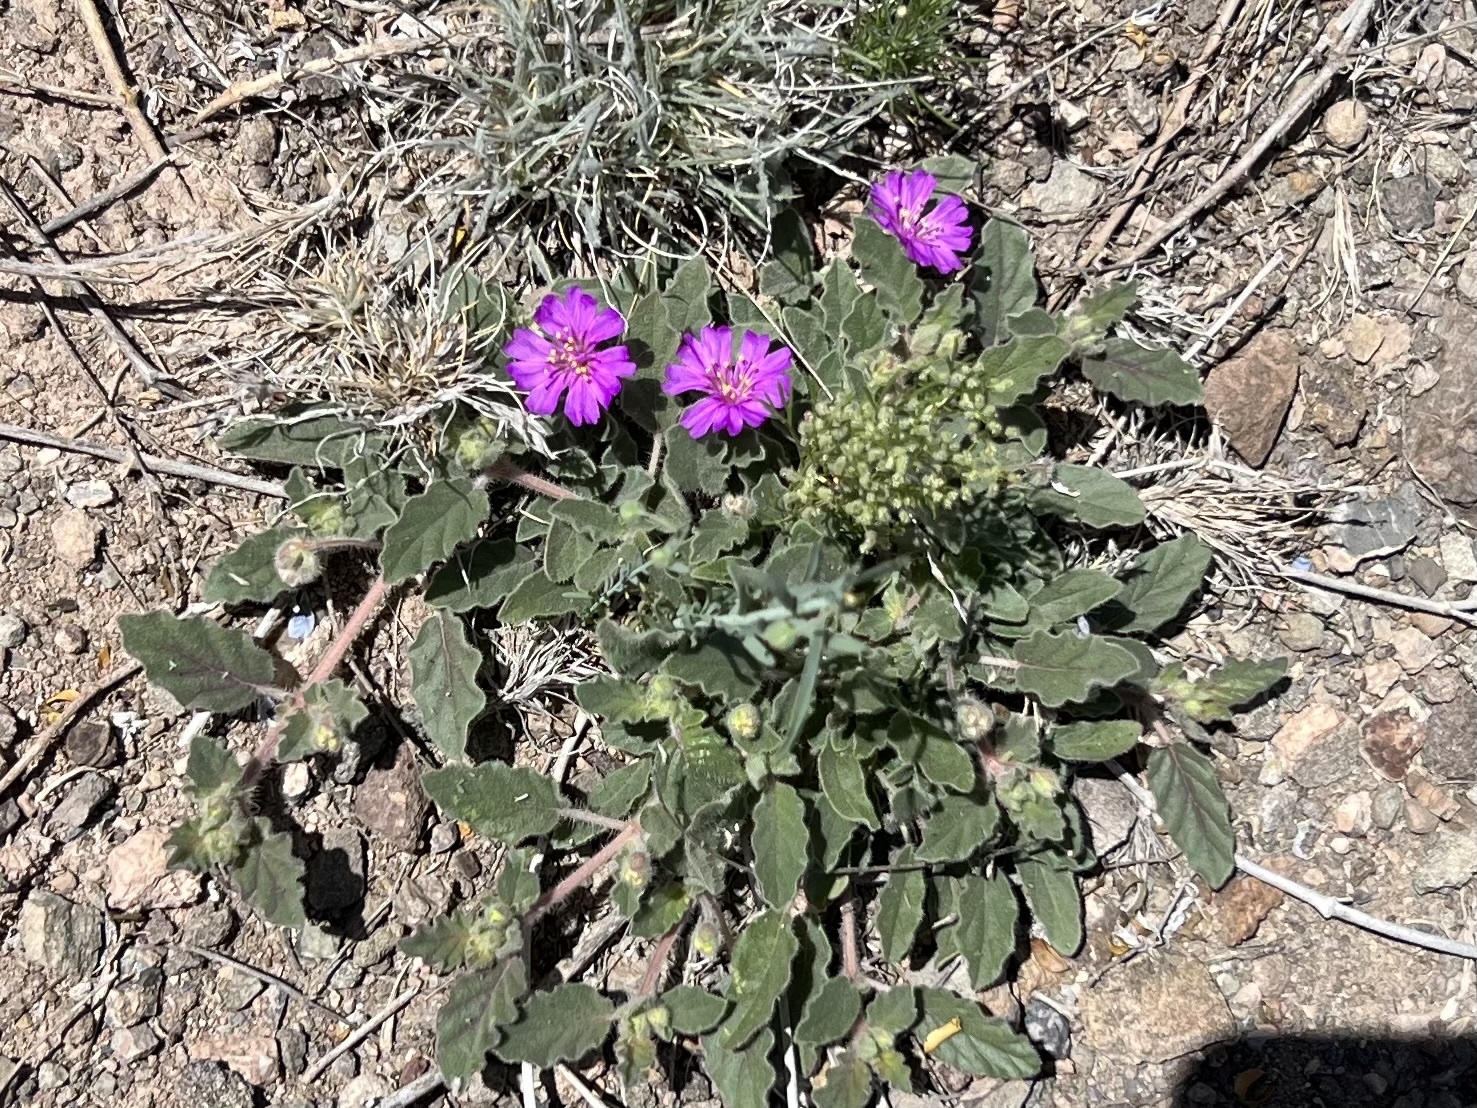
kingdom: Plantae
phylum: Tracheophyta
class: Magnoliopsida
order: Caryophyllales
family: Nyctaginaceae
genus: Allionia
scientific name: Allionia incarnata
